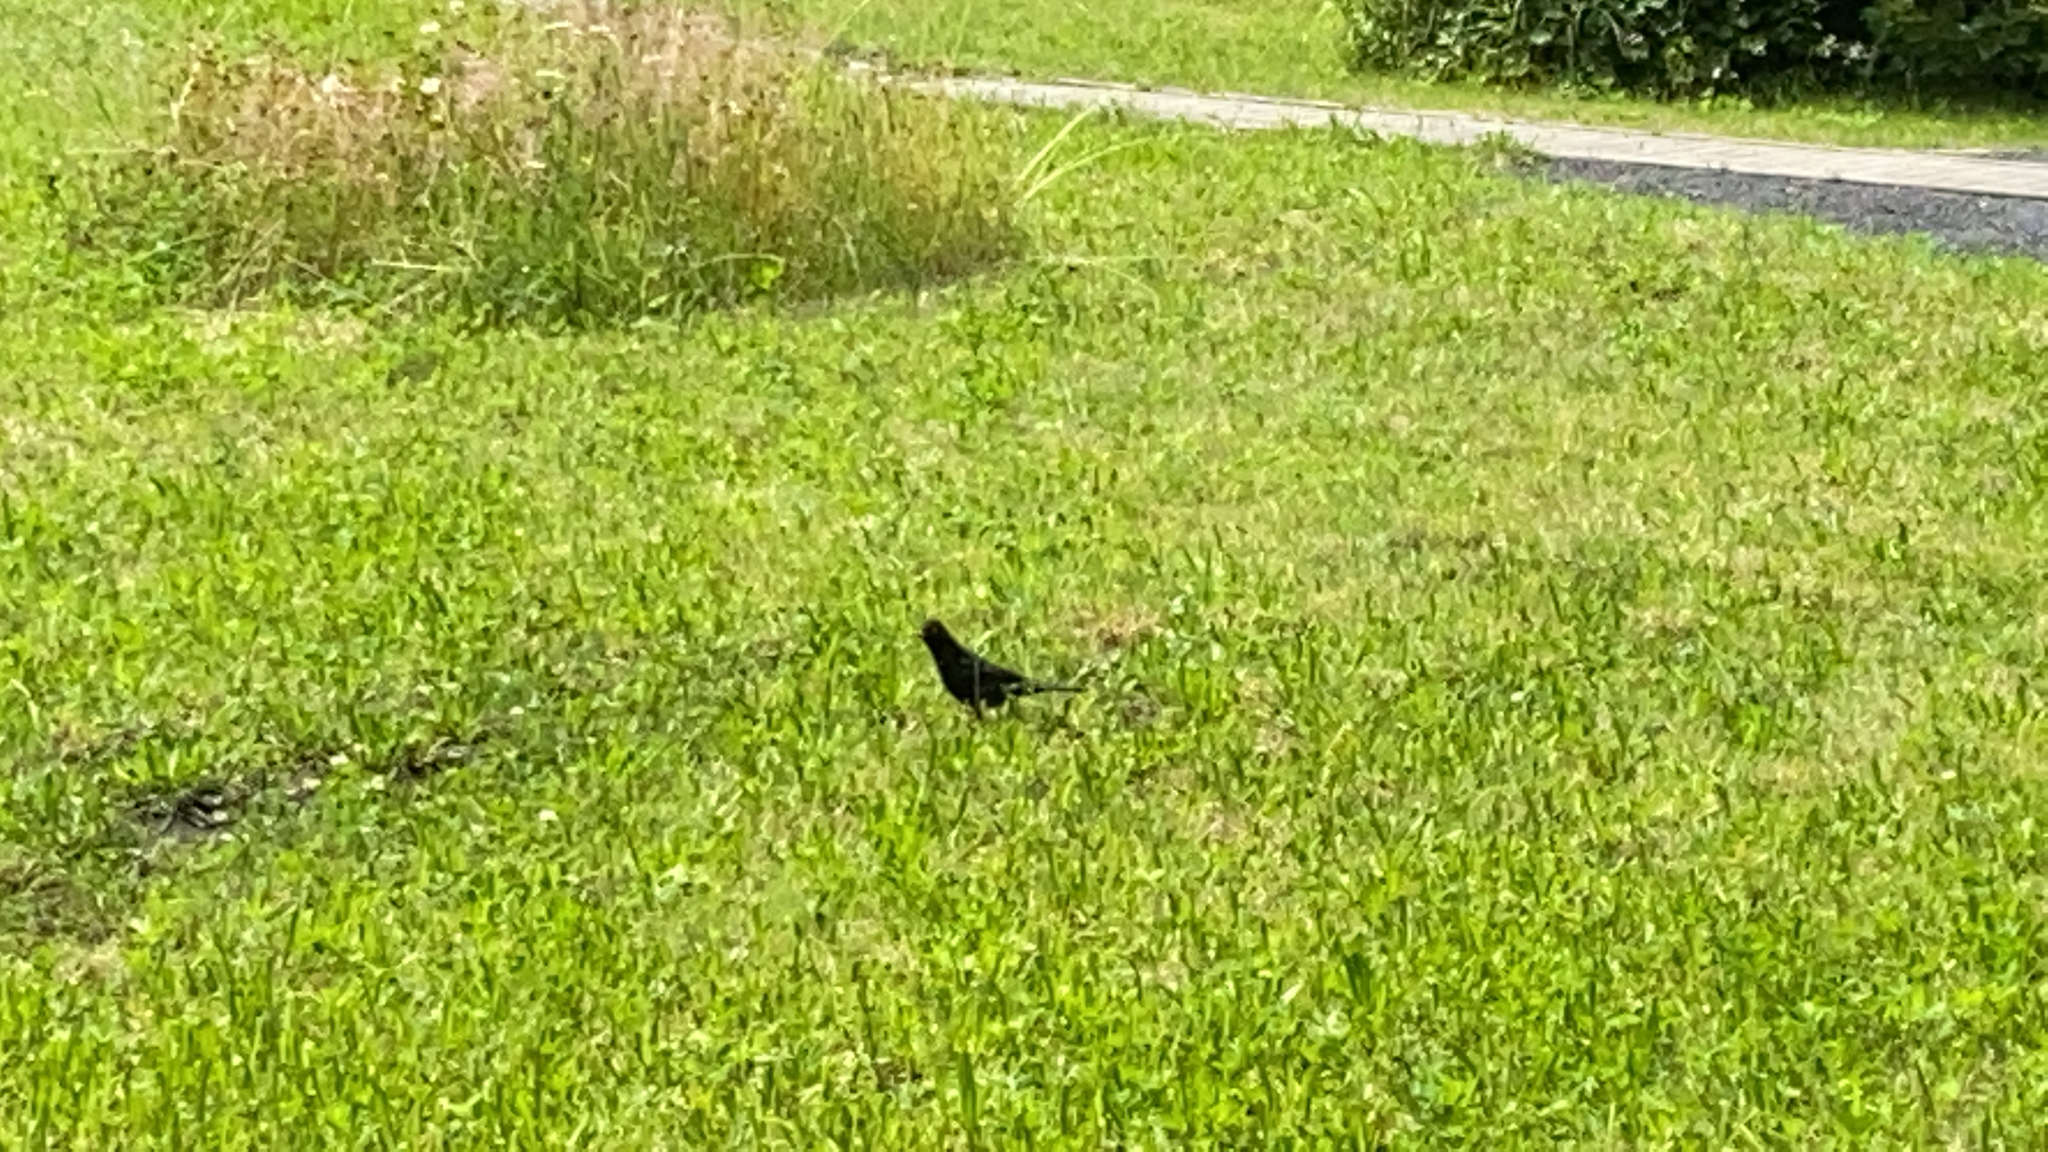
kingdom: Animalia
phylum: Chordata
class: Aves
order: Passeriformes
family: Turdidae
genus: Turdus
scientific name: Turdus merula
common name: Common blackbird
